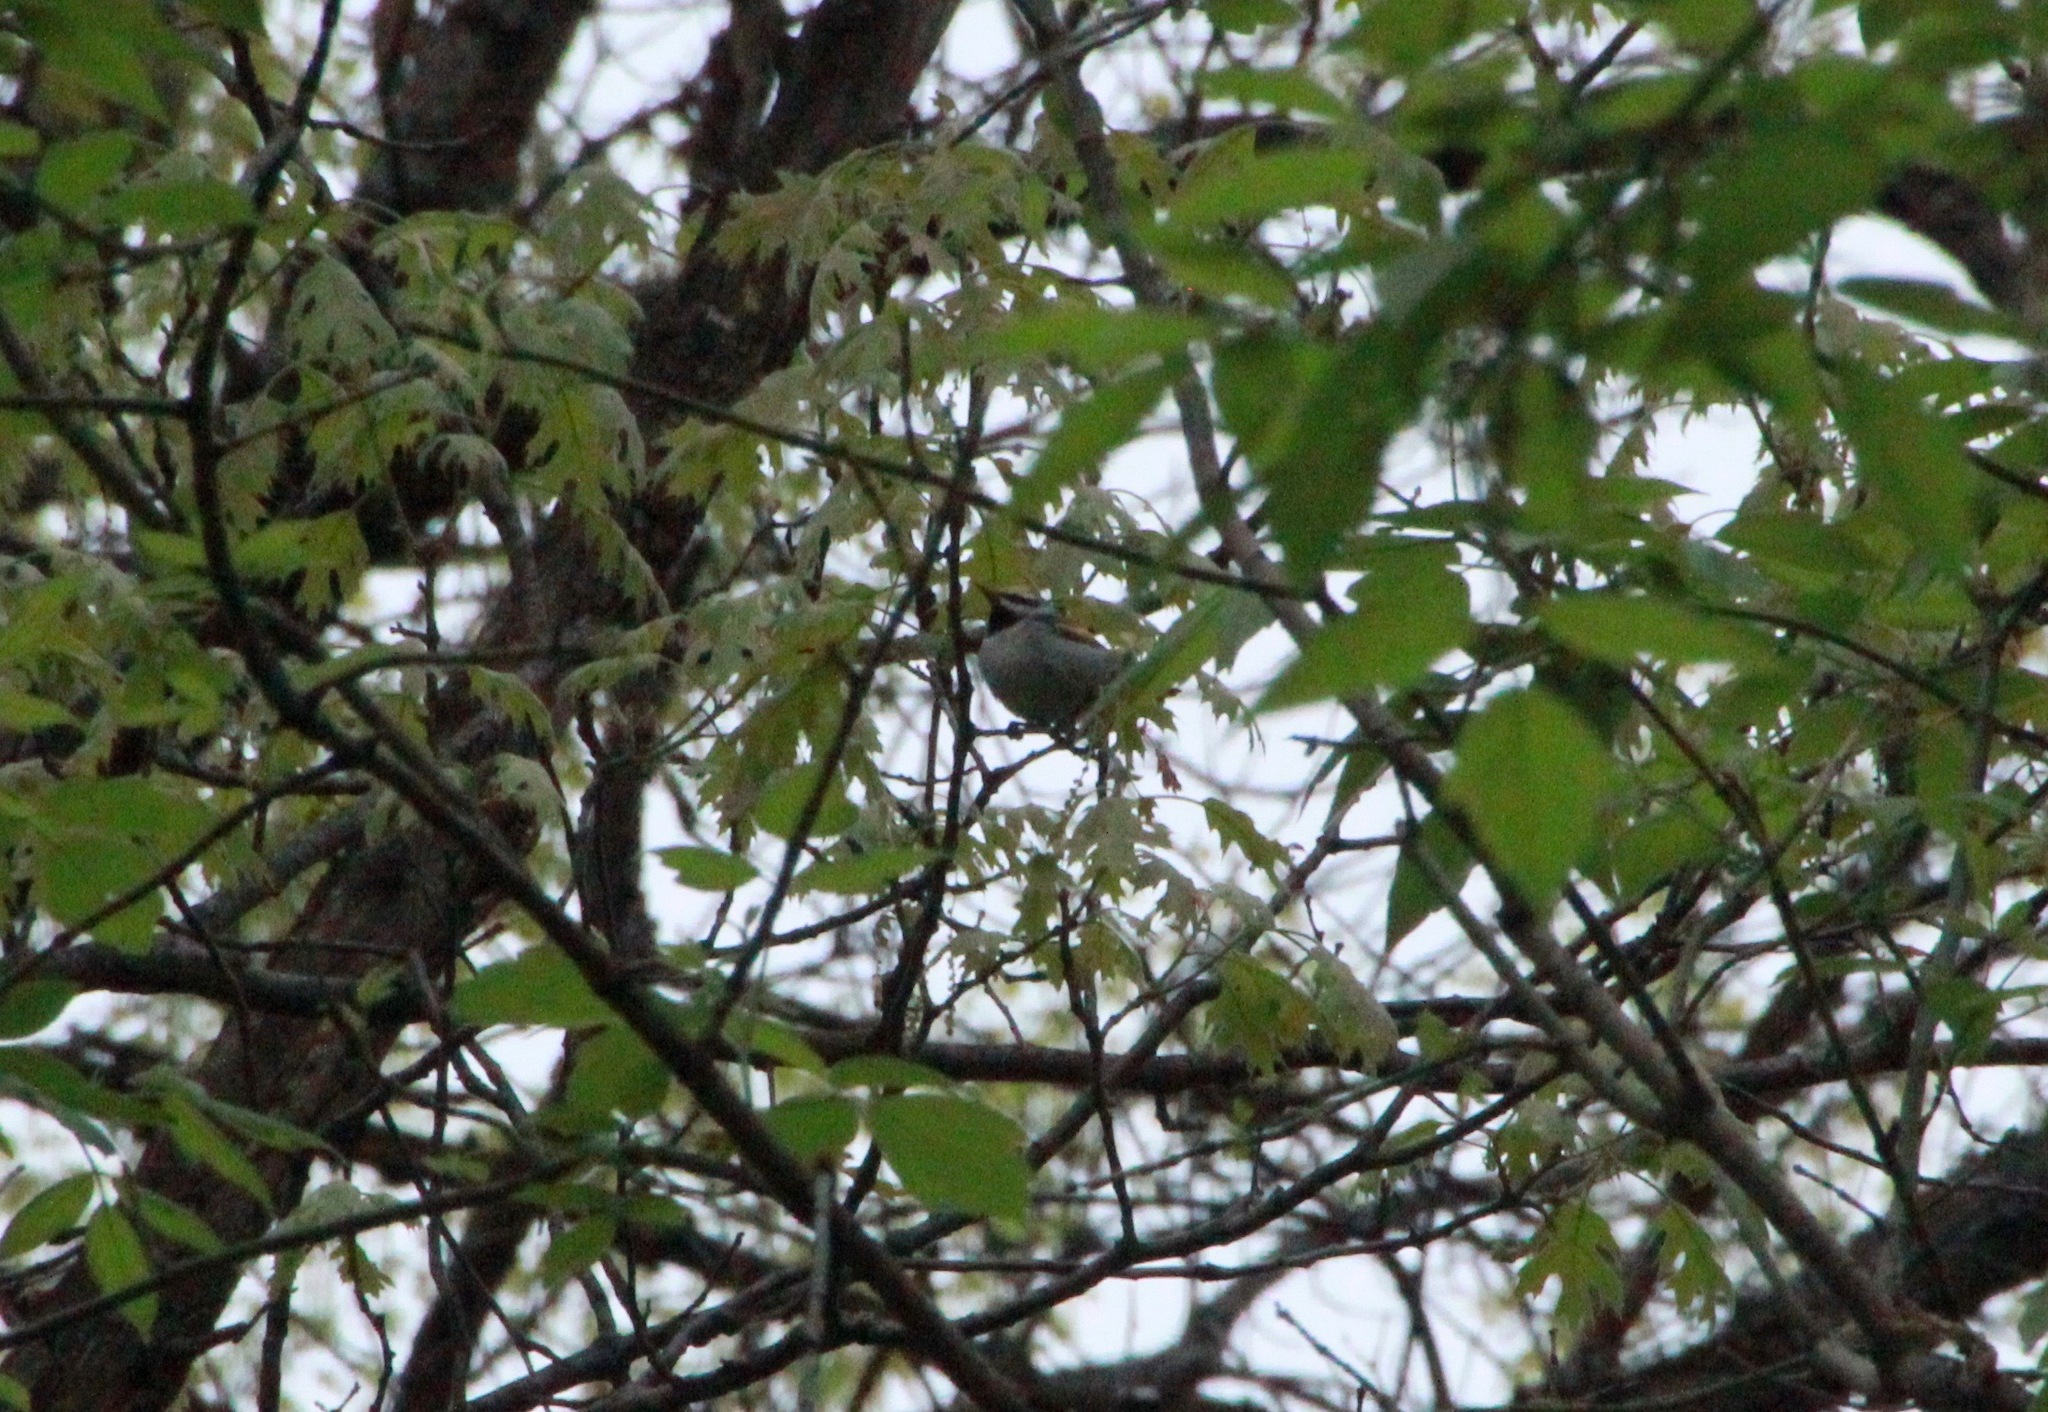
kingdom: Animalia
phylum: Chordata
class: Aves
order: Passeriformes
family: Parulidae
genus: Vermivora
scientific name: Vermivora chrysoptera
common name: Golden-winged warbler
